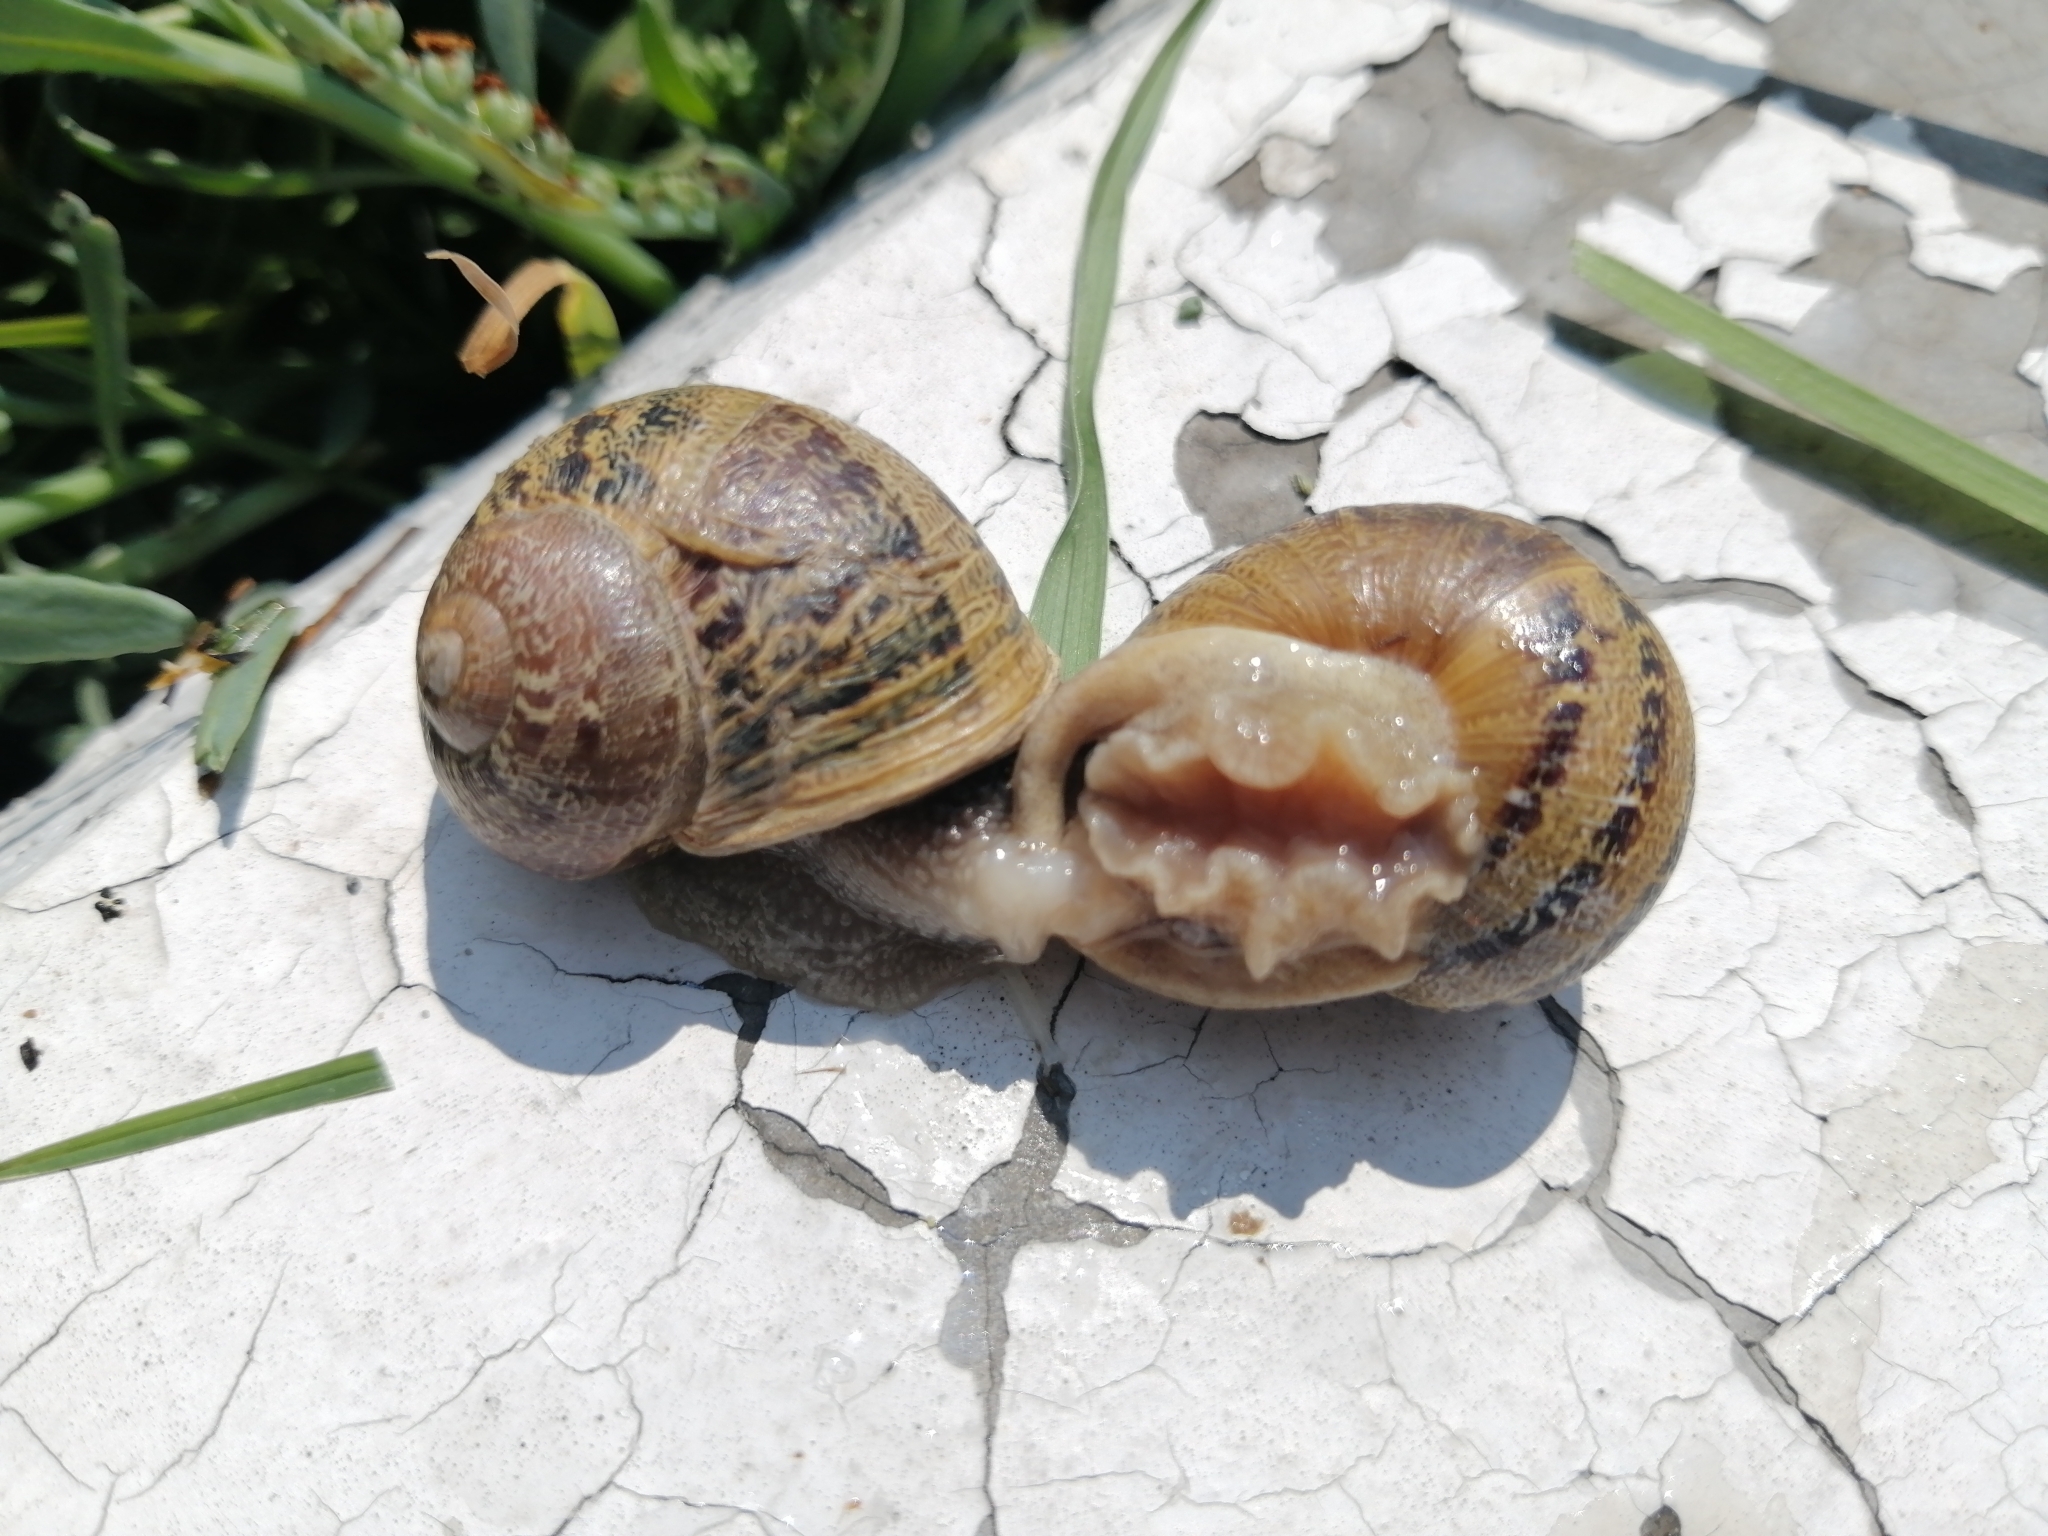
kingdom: Animalia
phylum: Mollusca
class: Gastropoda
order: Stylommatophora
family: Helicidae
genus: Cornu
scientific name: Cornu aspersum
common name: Brown garden snail
